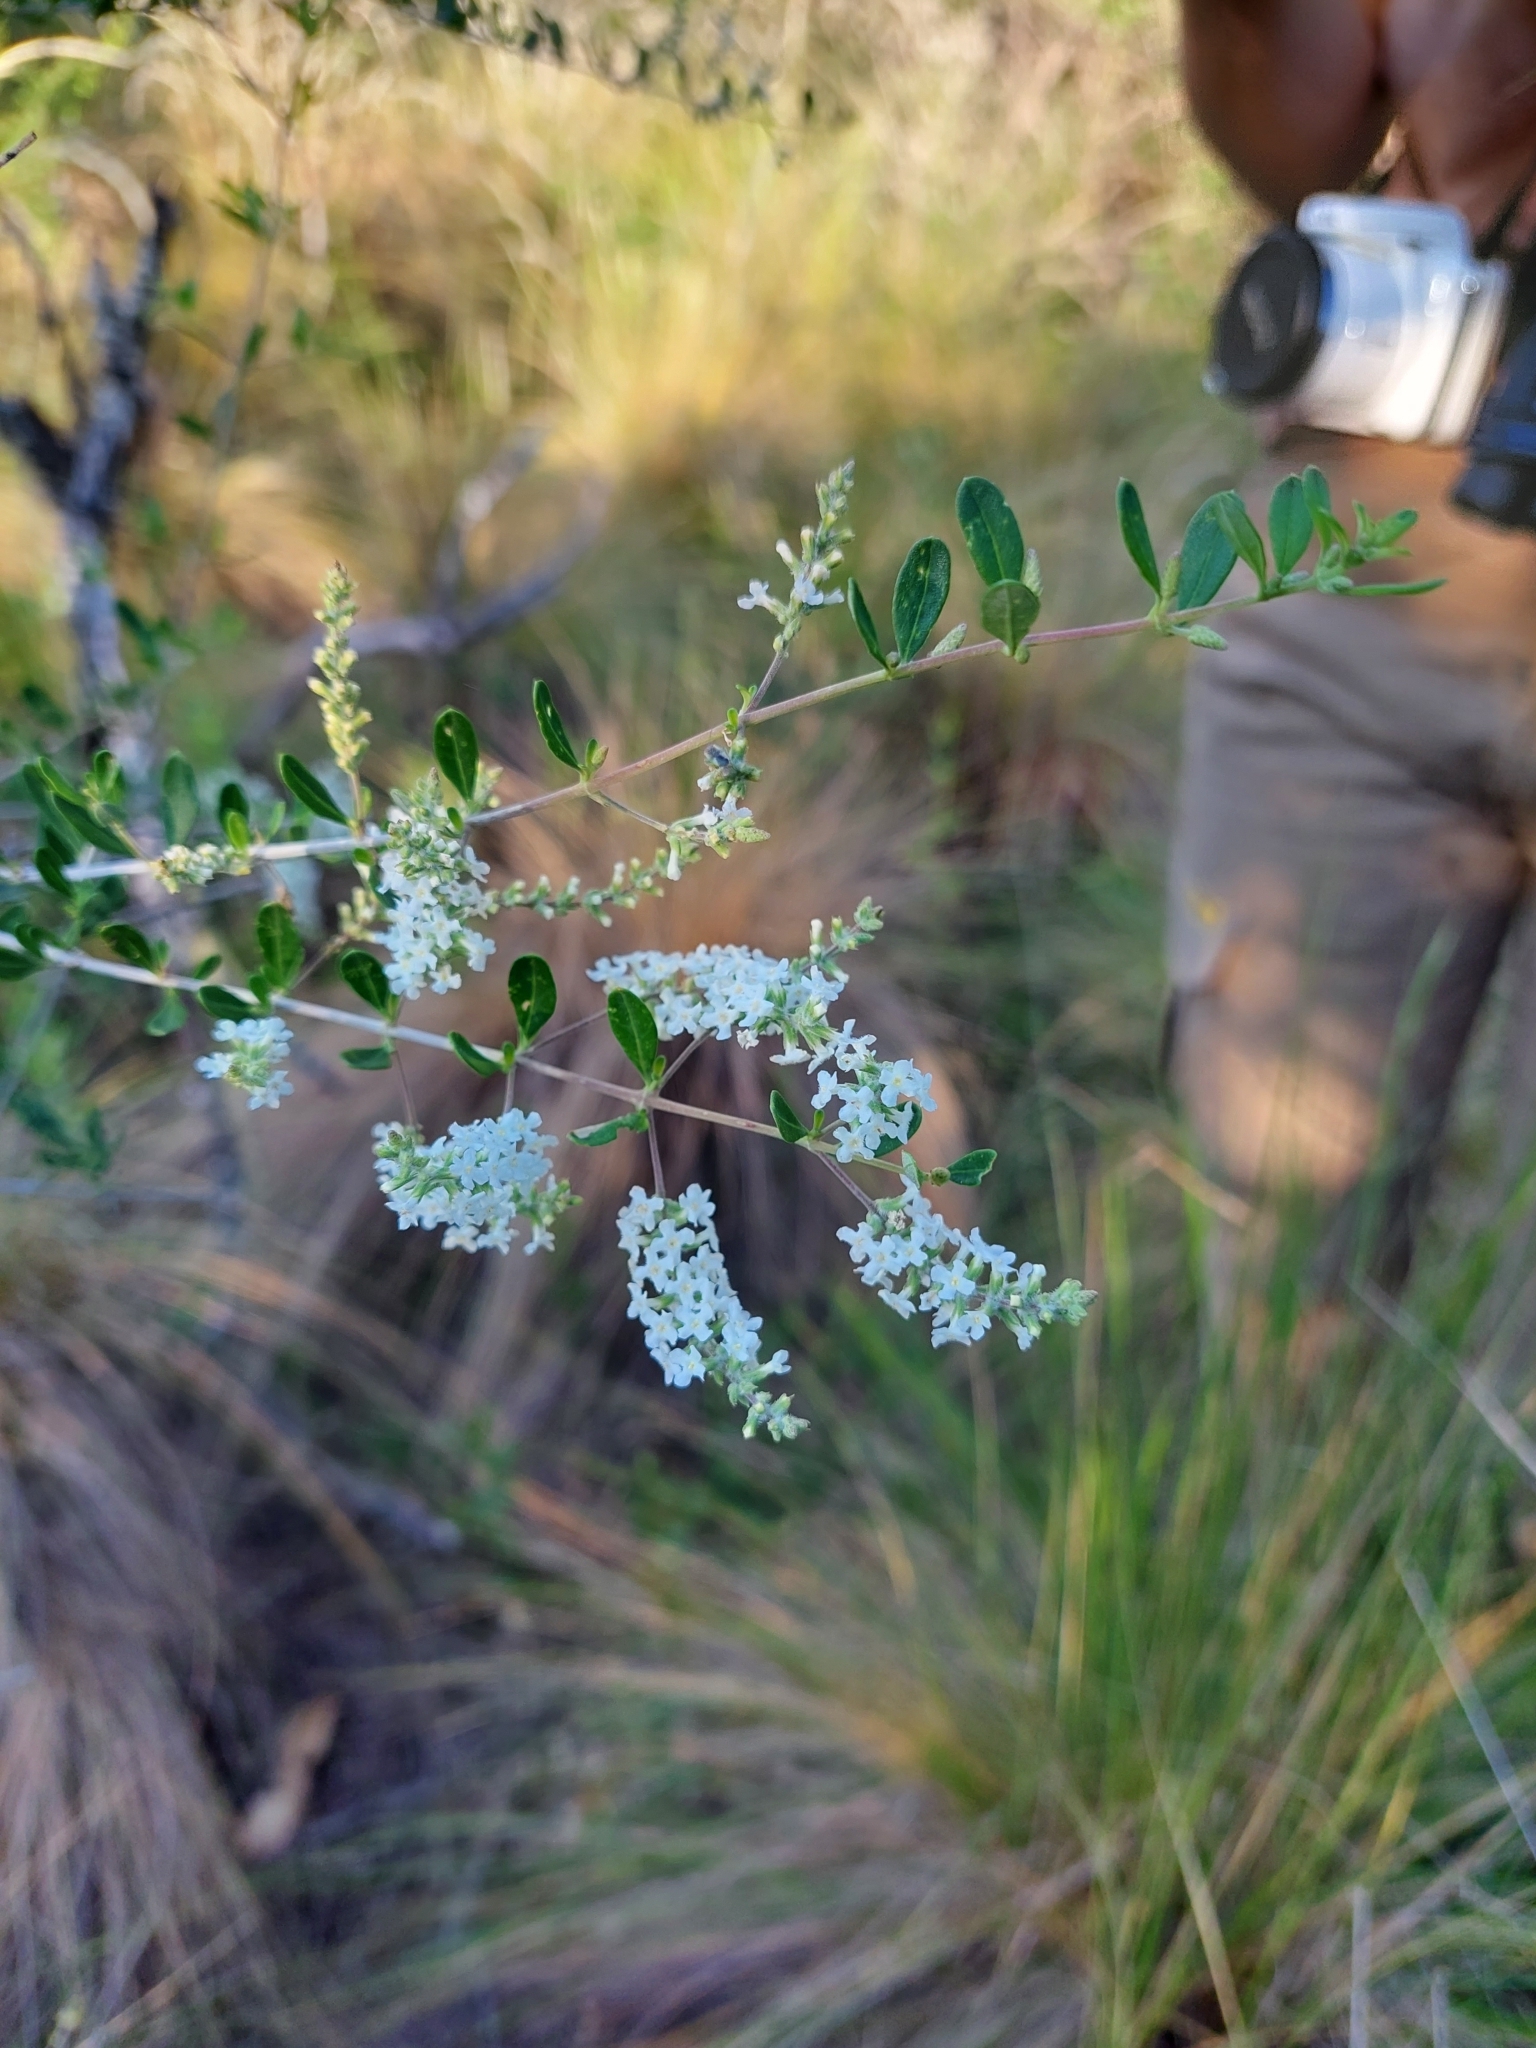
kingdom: Plantae
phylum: Tracheophyta
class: Magnoliopsida
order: Lamiales
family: Verbenaceae
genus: Aloysia
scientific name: Aloysia gratissima
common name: Common bee-brush
